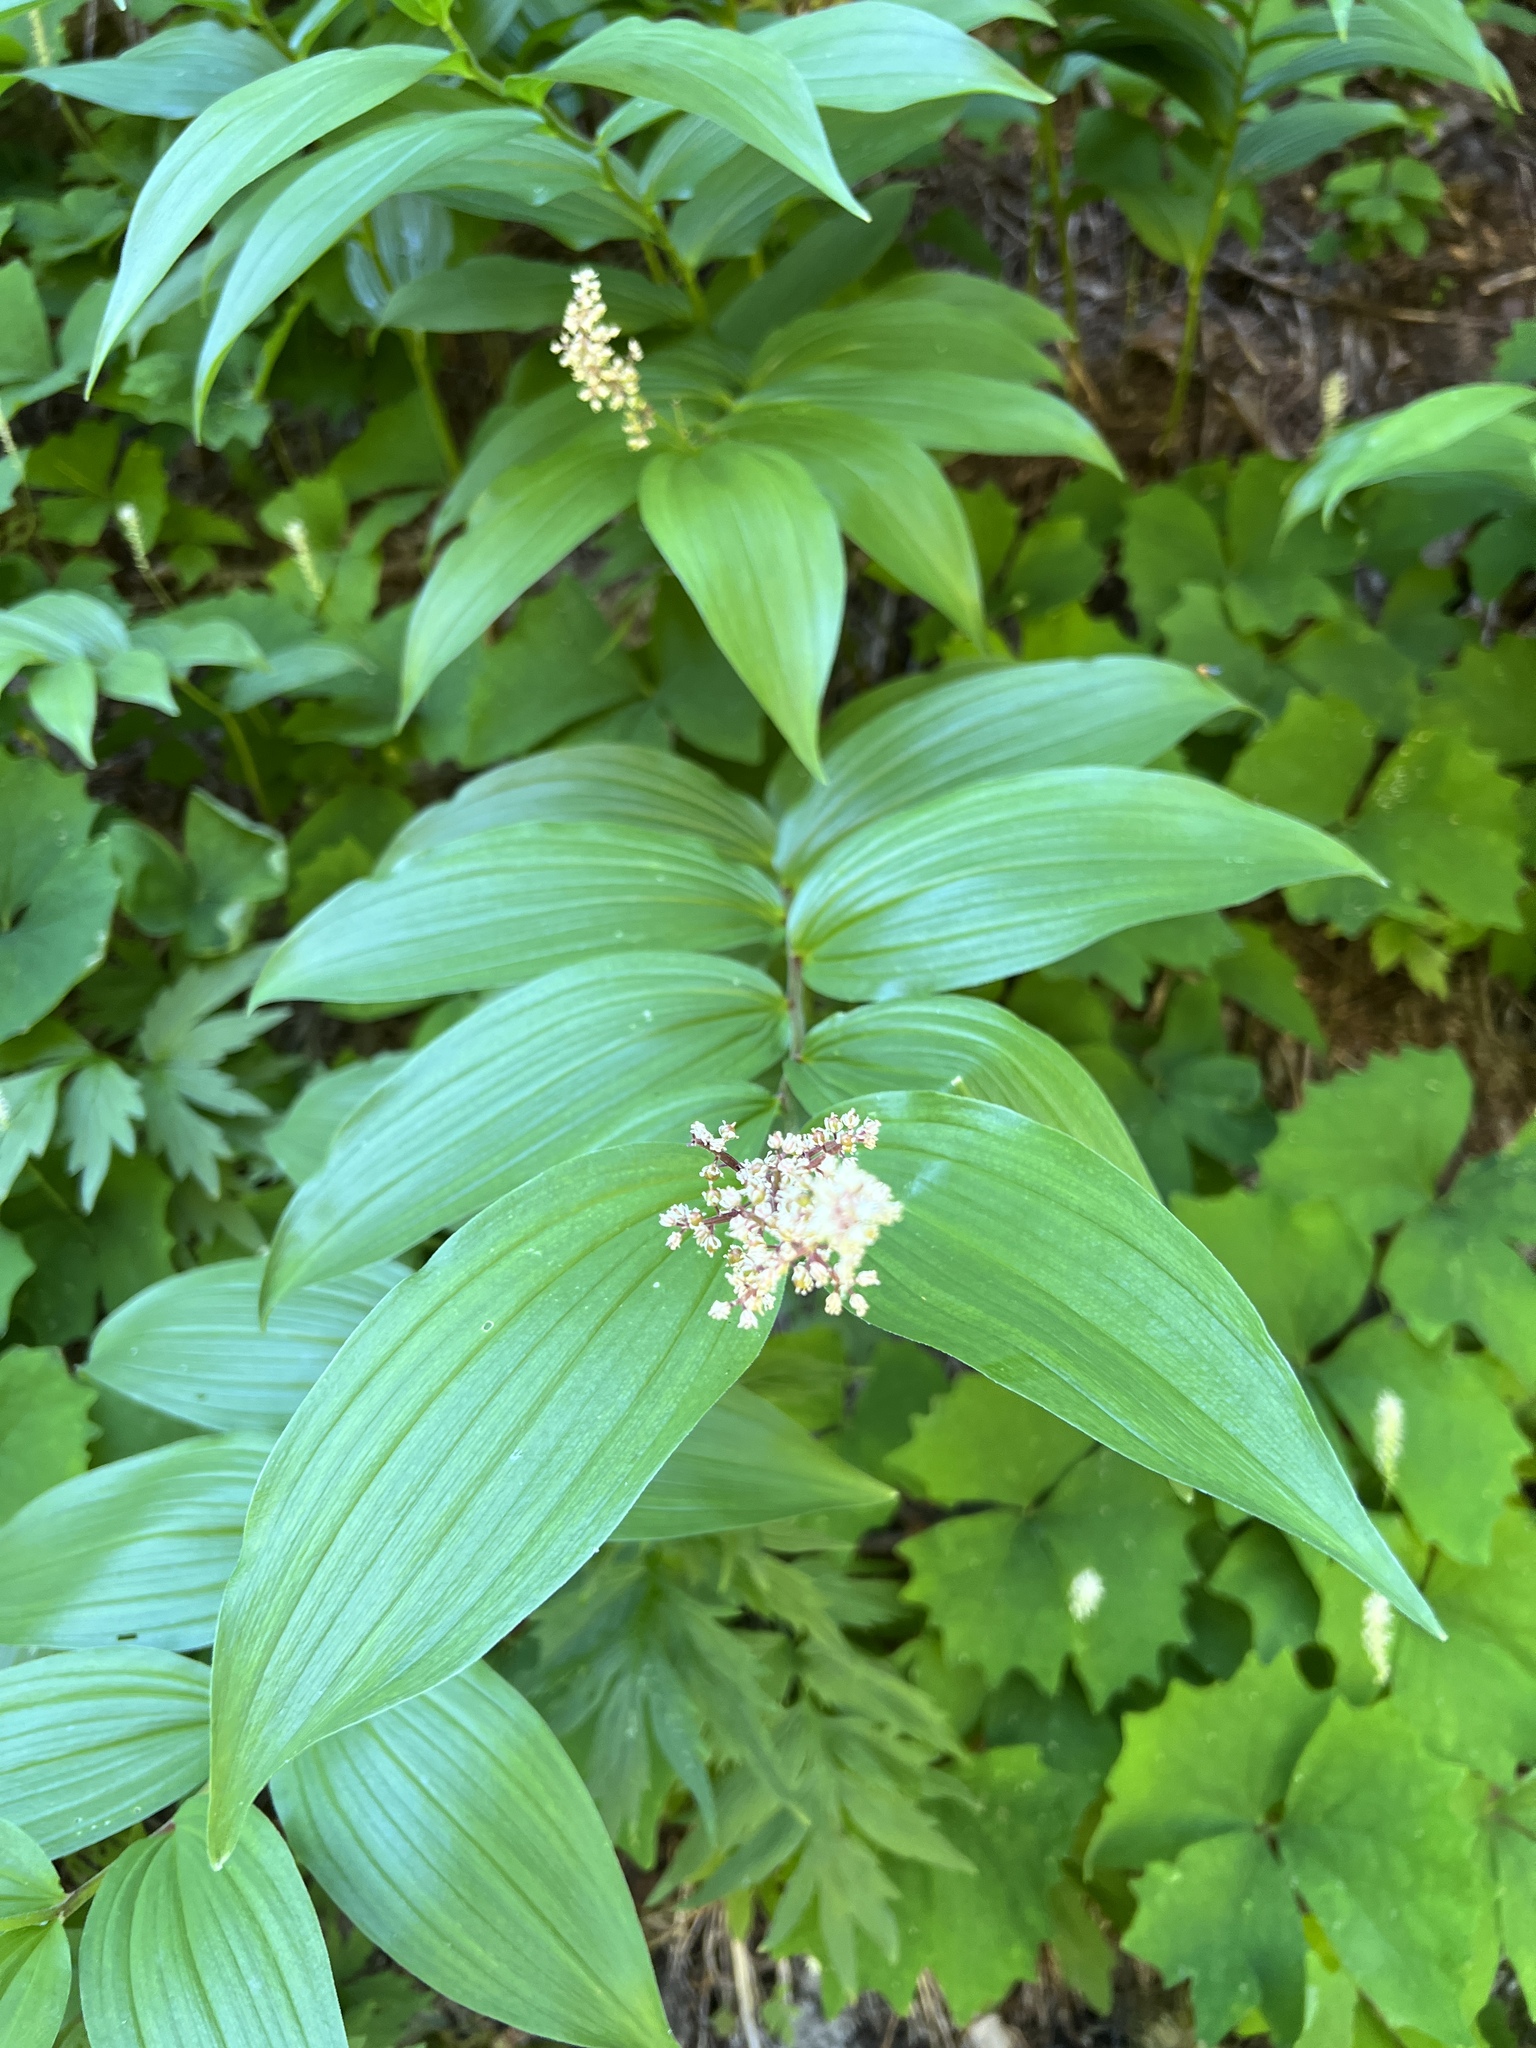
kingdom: Plantae
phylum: Tracheophyta
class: Liliopsida
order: Asparagales
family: Asparagaceae
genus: Maianthemum
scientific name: Maianthemum racemosum
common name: False spikenard
